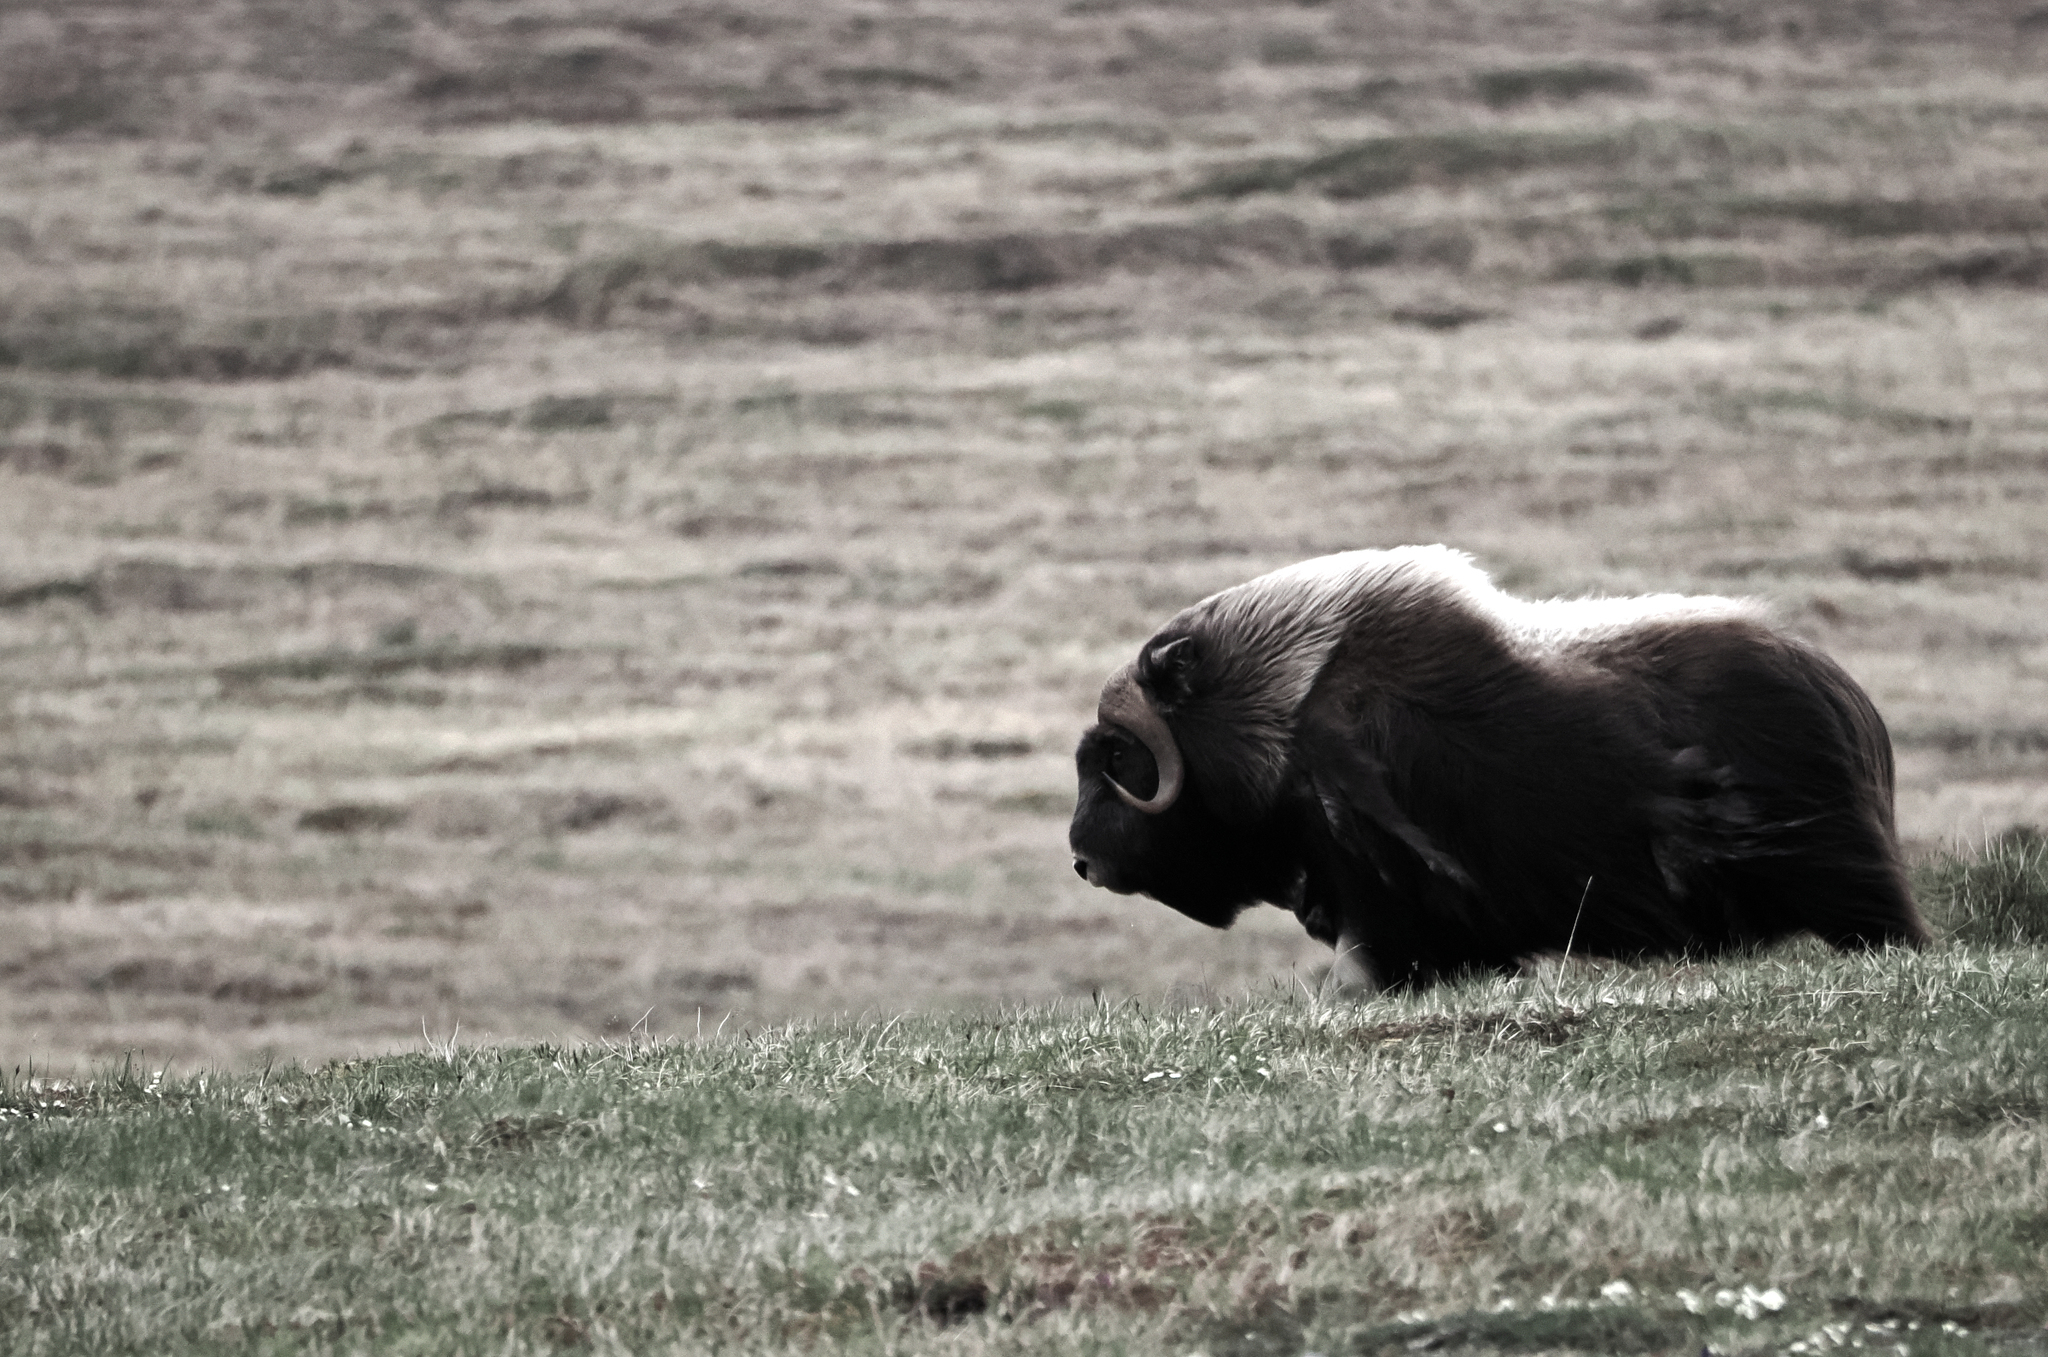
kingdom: Animalia
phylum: Chordata
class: Mammalia
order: Artiodactyla
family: Bovidae
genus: Ovibos
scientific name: Ovibos moschatus
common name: Muskox
